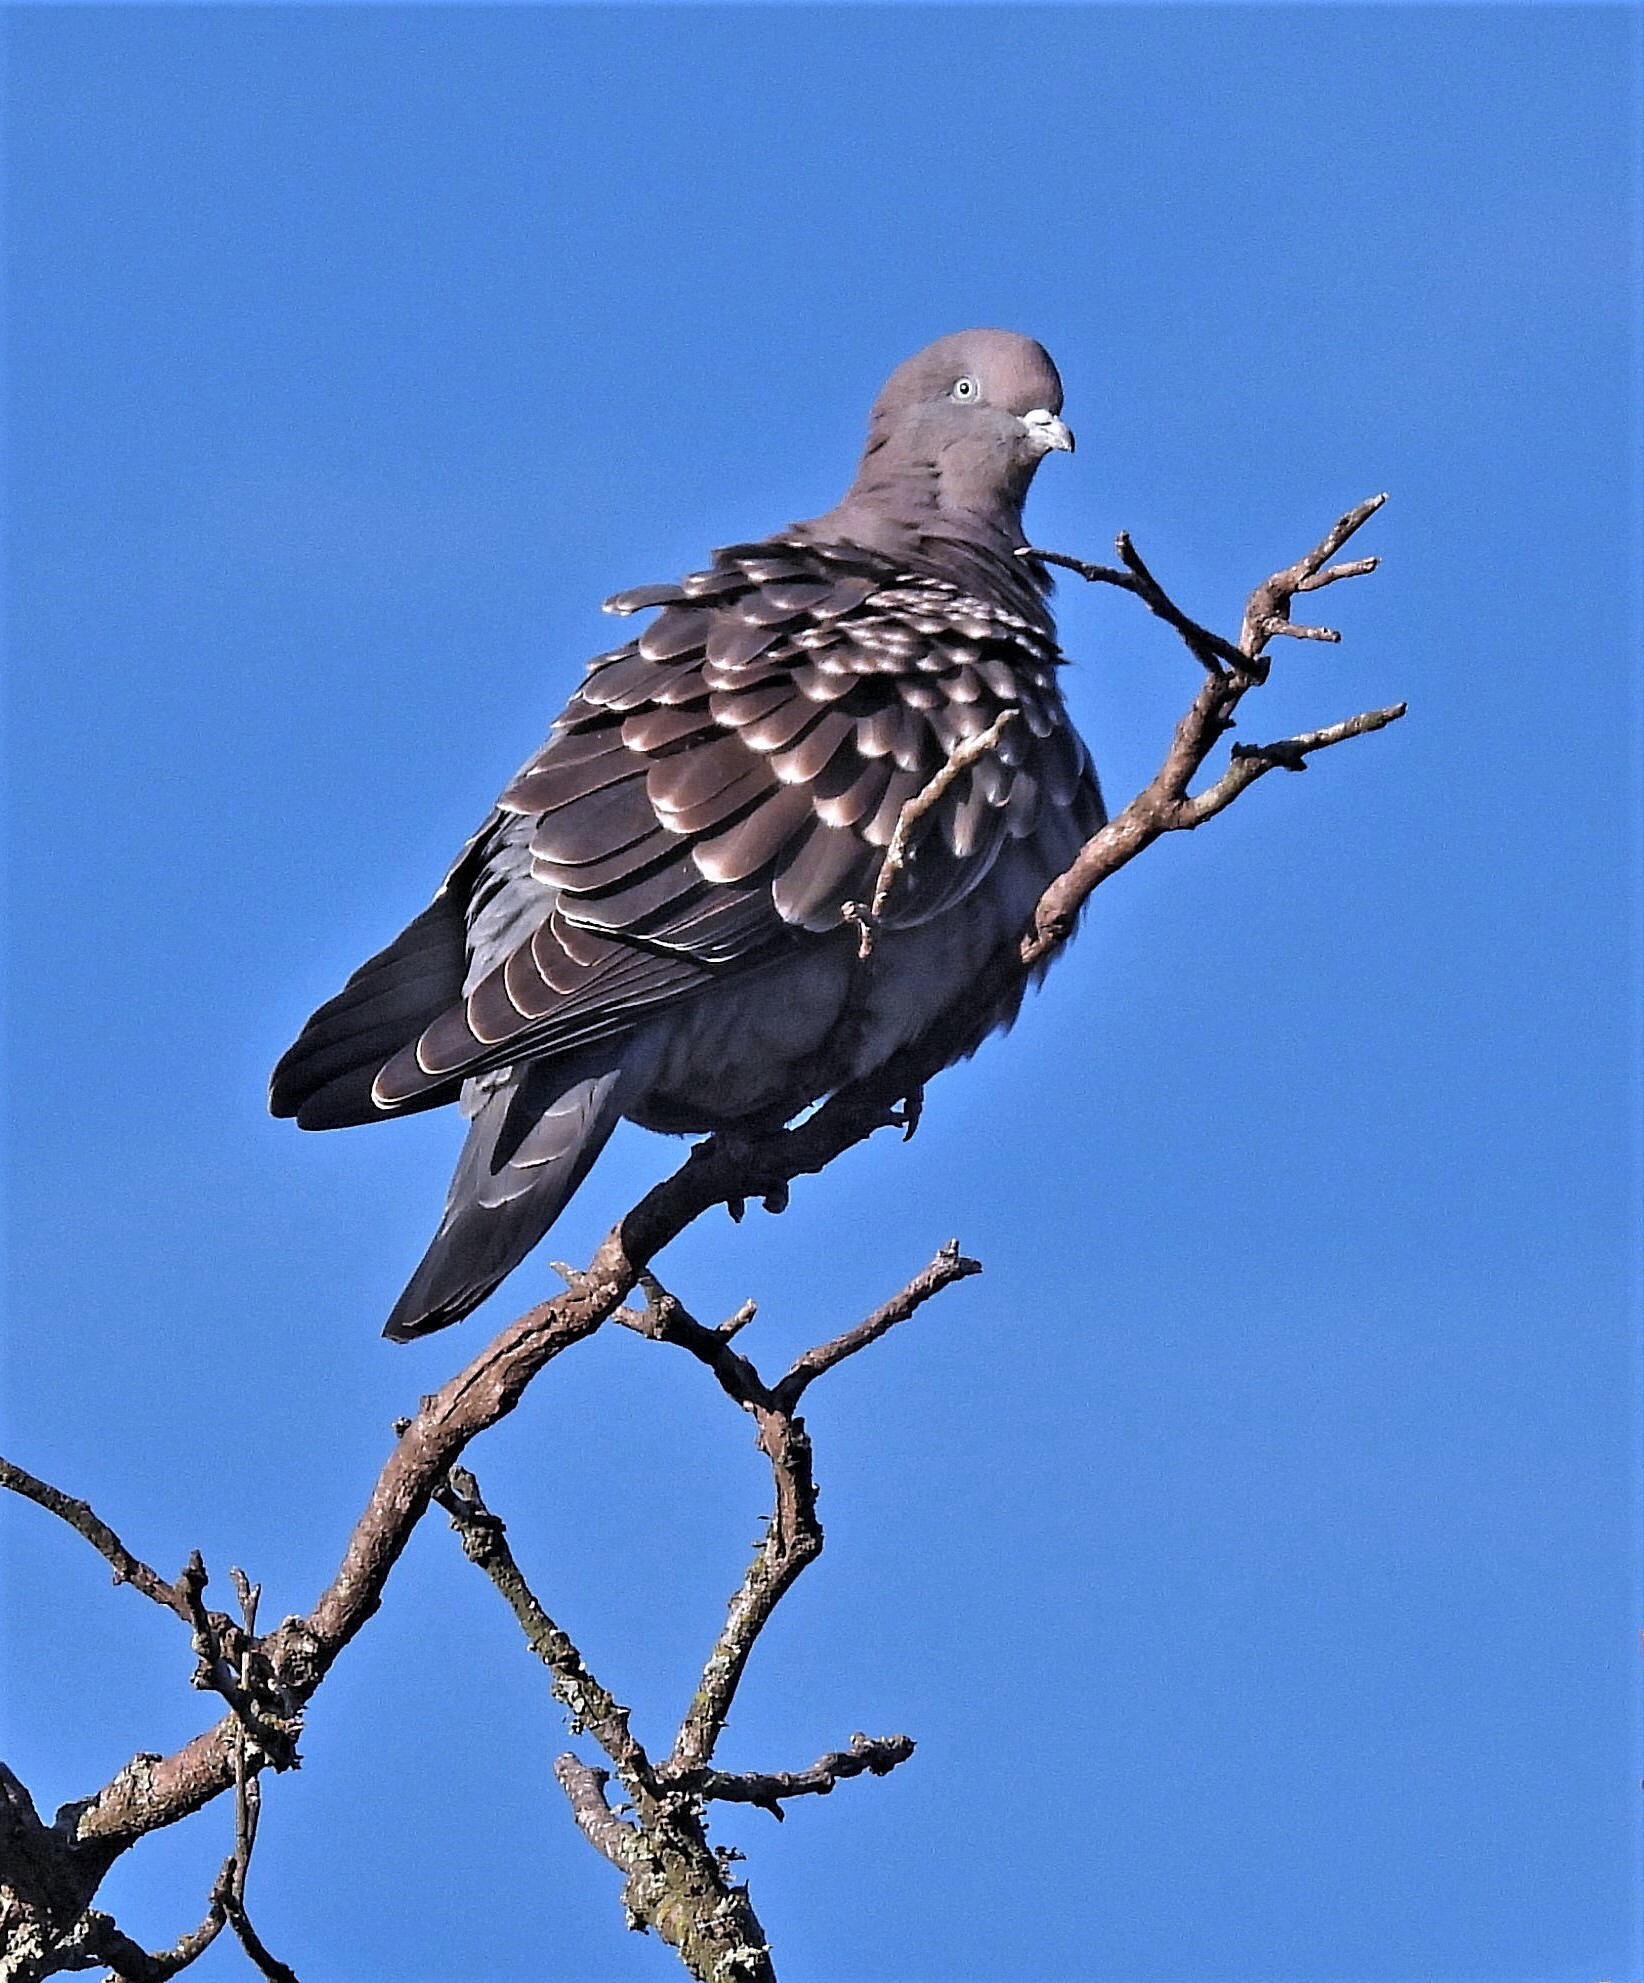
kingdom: Animalia
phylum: Chordata
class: Aves
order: Columbiformes
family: Columbidae
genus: Patagioenas
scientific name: Patagioenas maculosa
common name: Spot-winged pigeon
